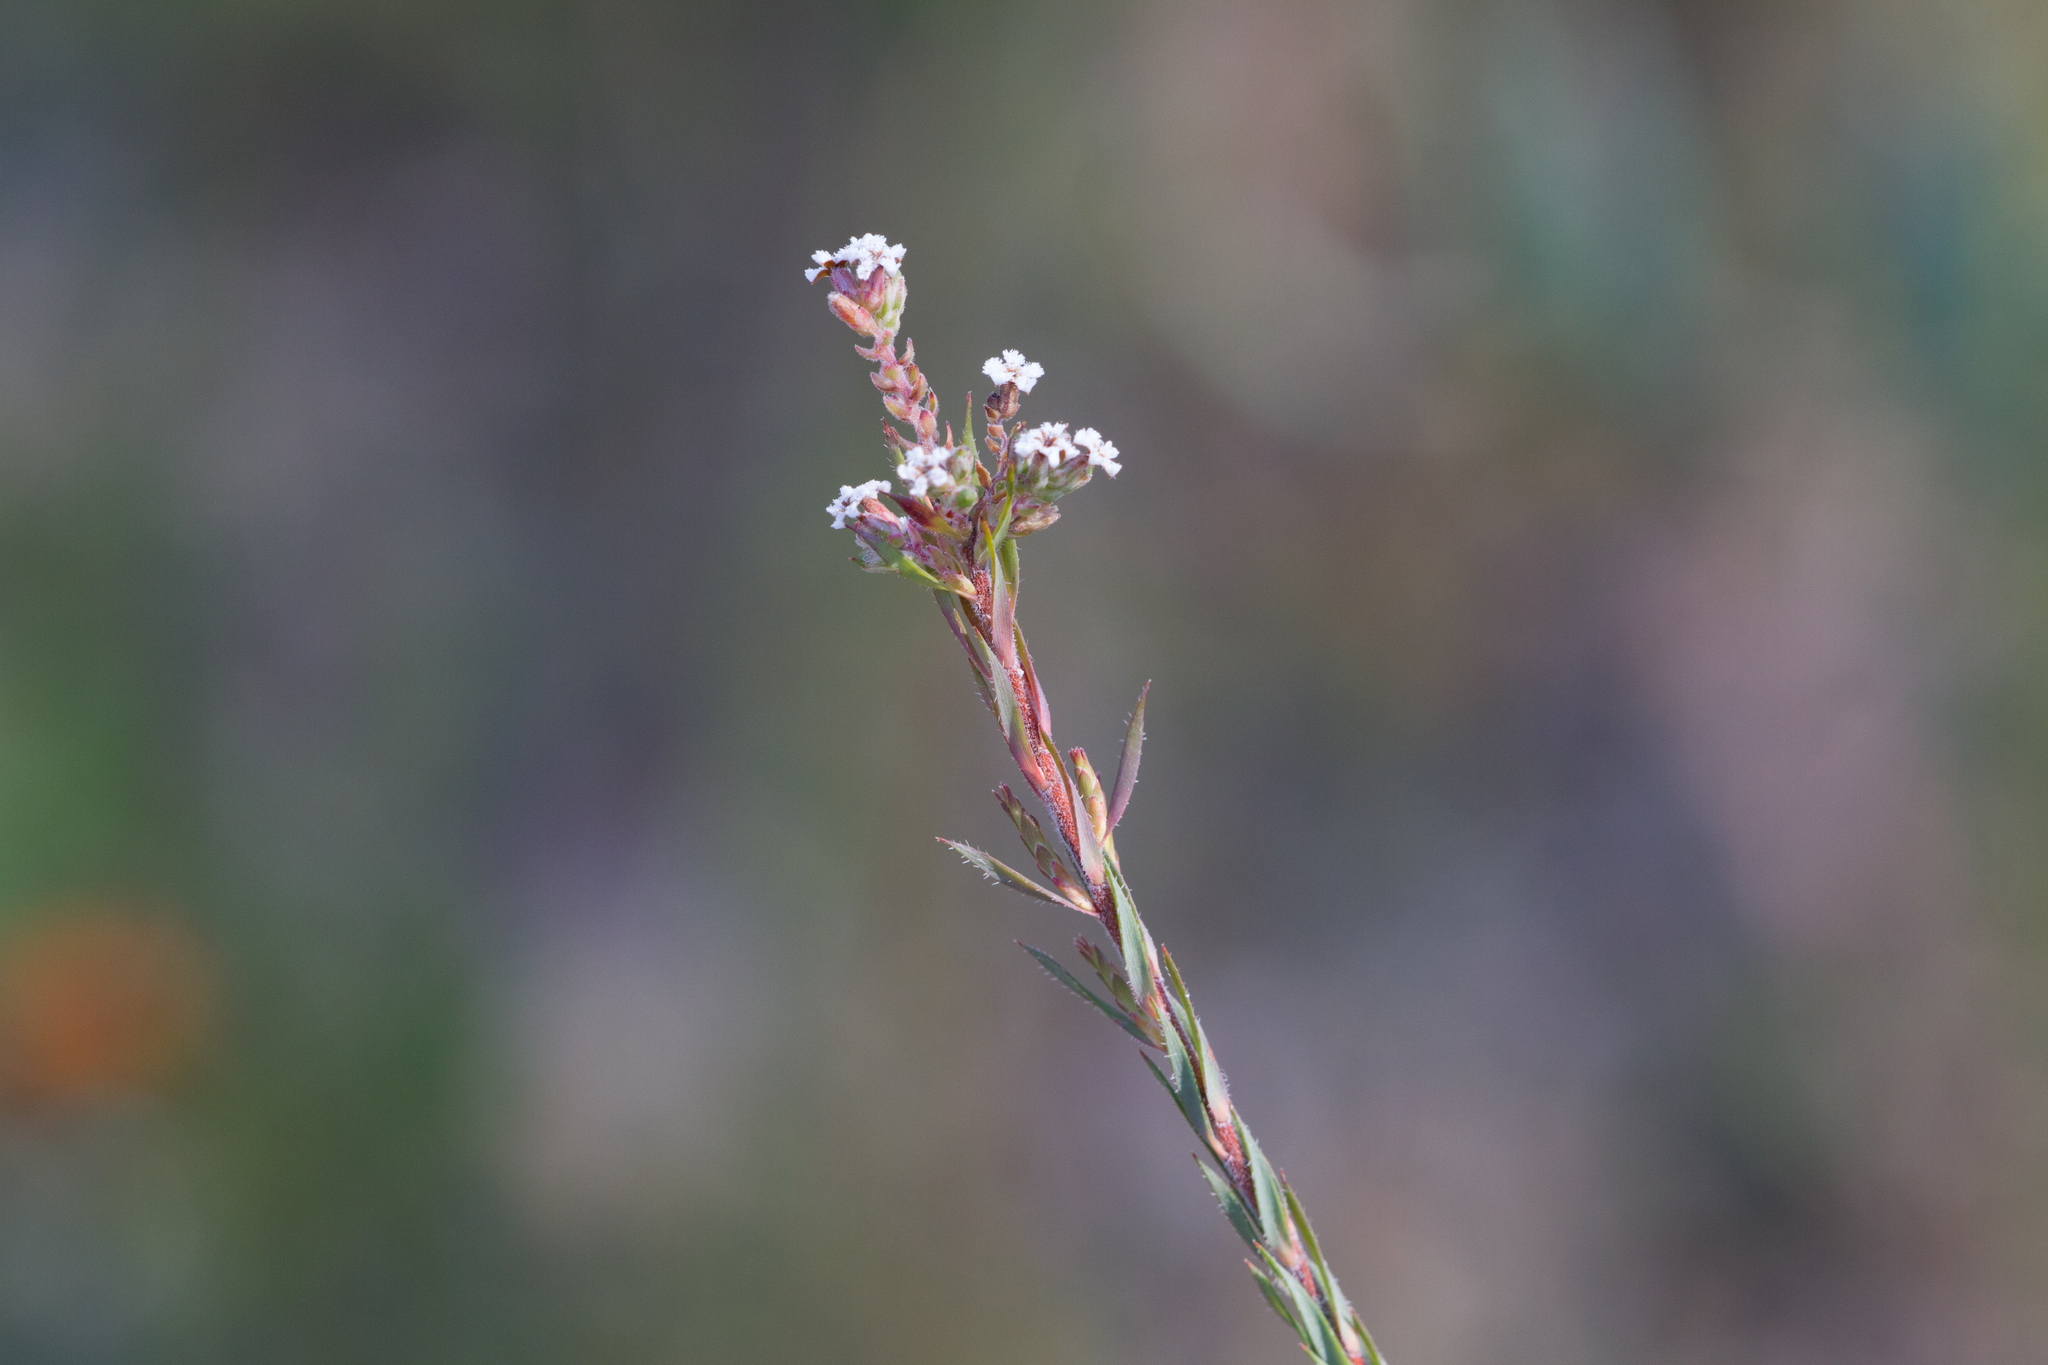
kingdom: Plantae
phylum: Tracheophyta
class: Magnoliopsida
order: Ericales
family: Ericaceae
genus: Leucopogon
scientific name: Leucopogon glacialis
